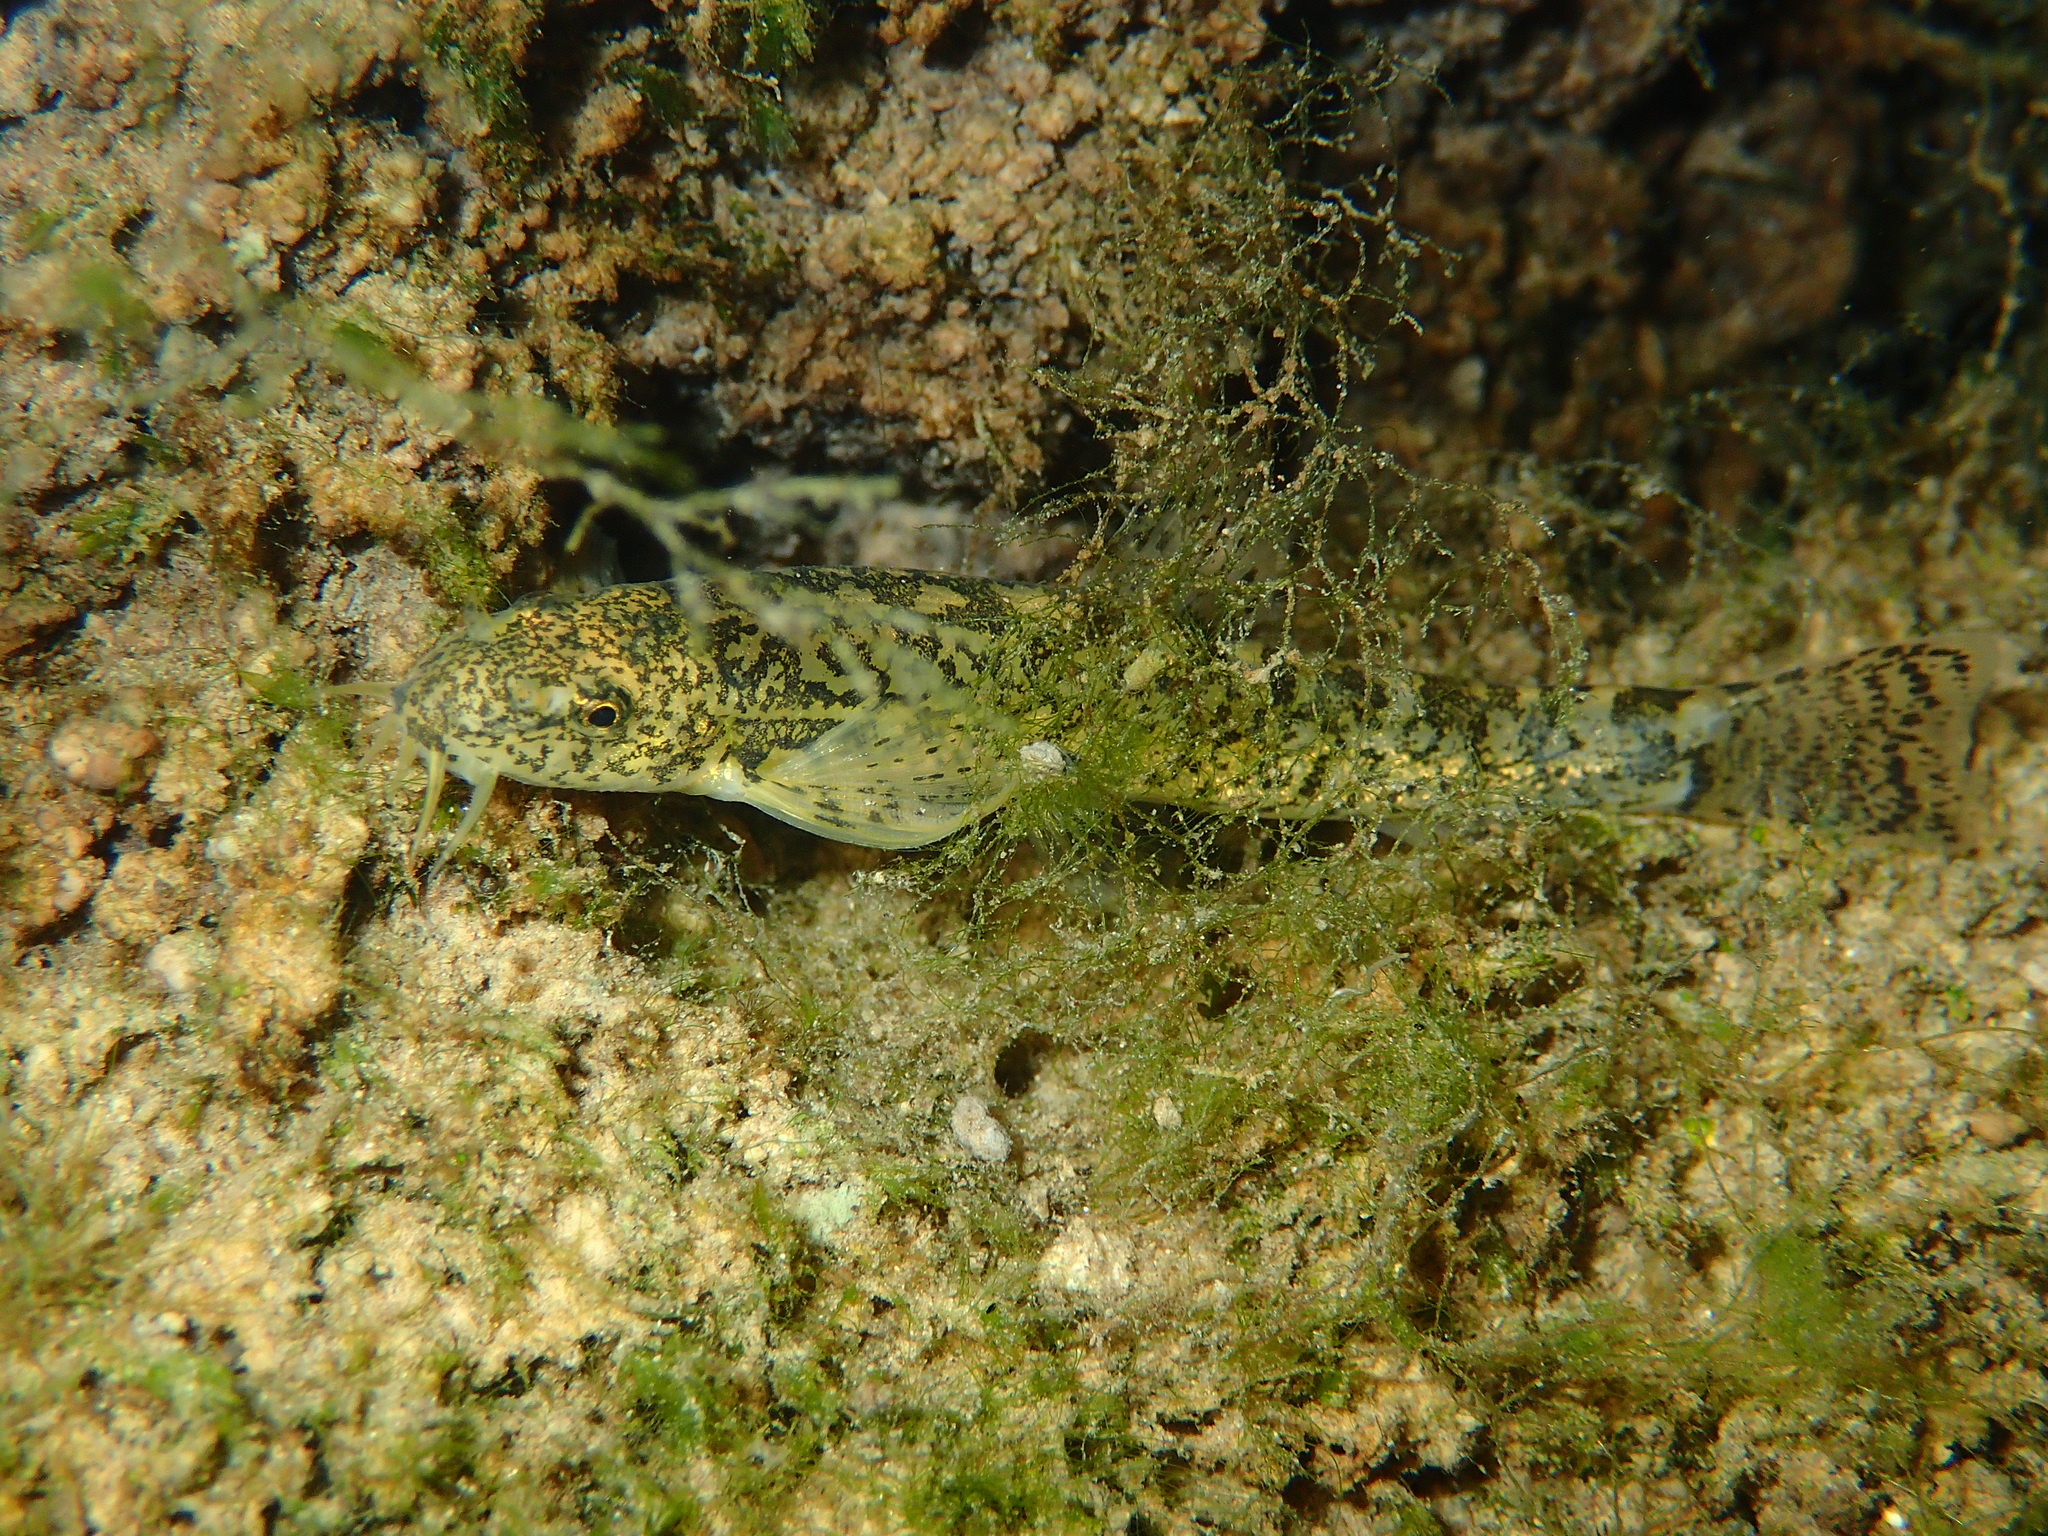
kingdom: Animalia
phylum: Chordata
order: Cypriniformes
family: Nemacheilidae
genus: Barbatula
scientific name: Barbatula quignardi
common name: Lez stone loach
